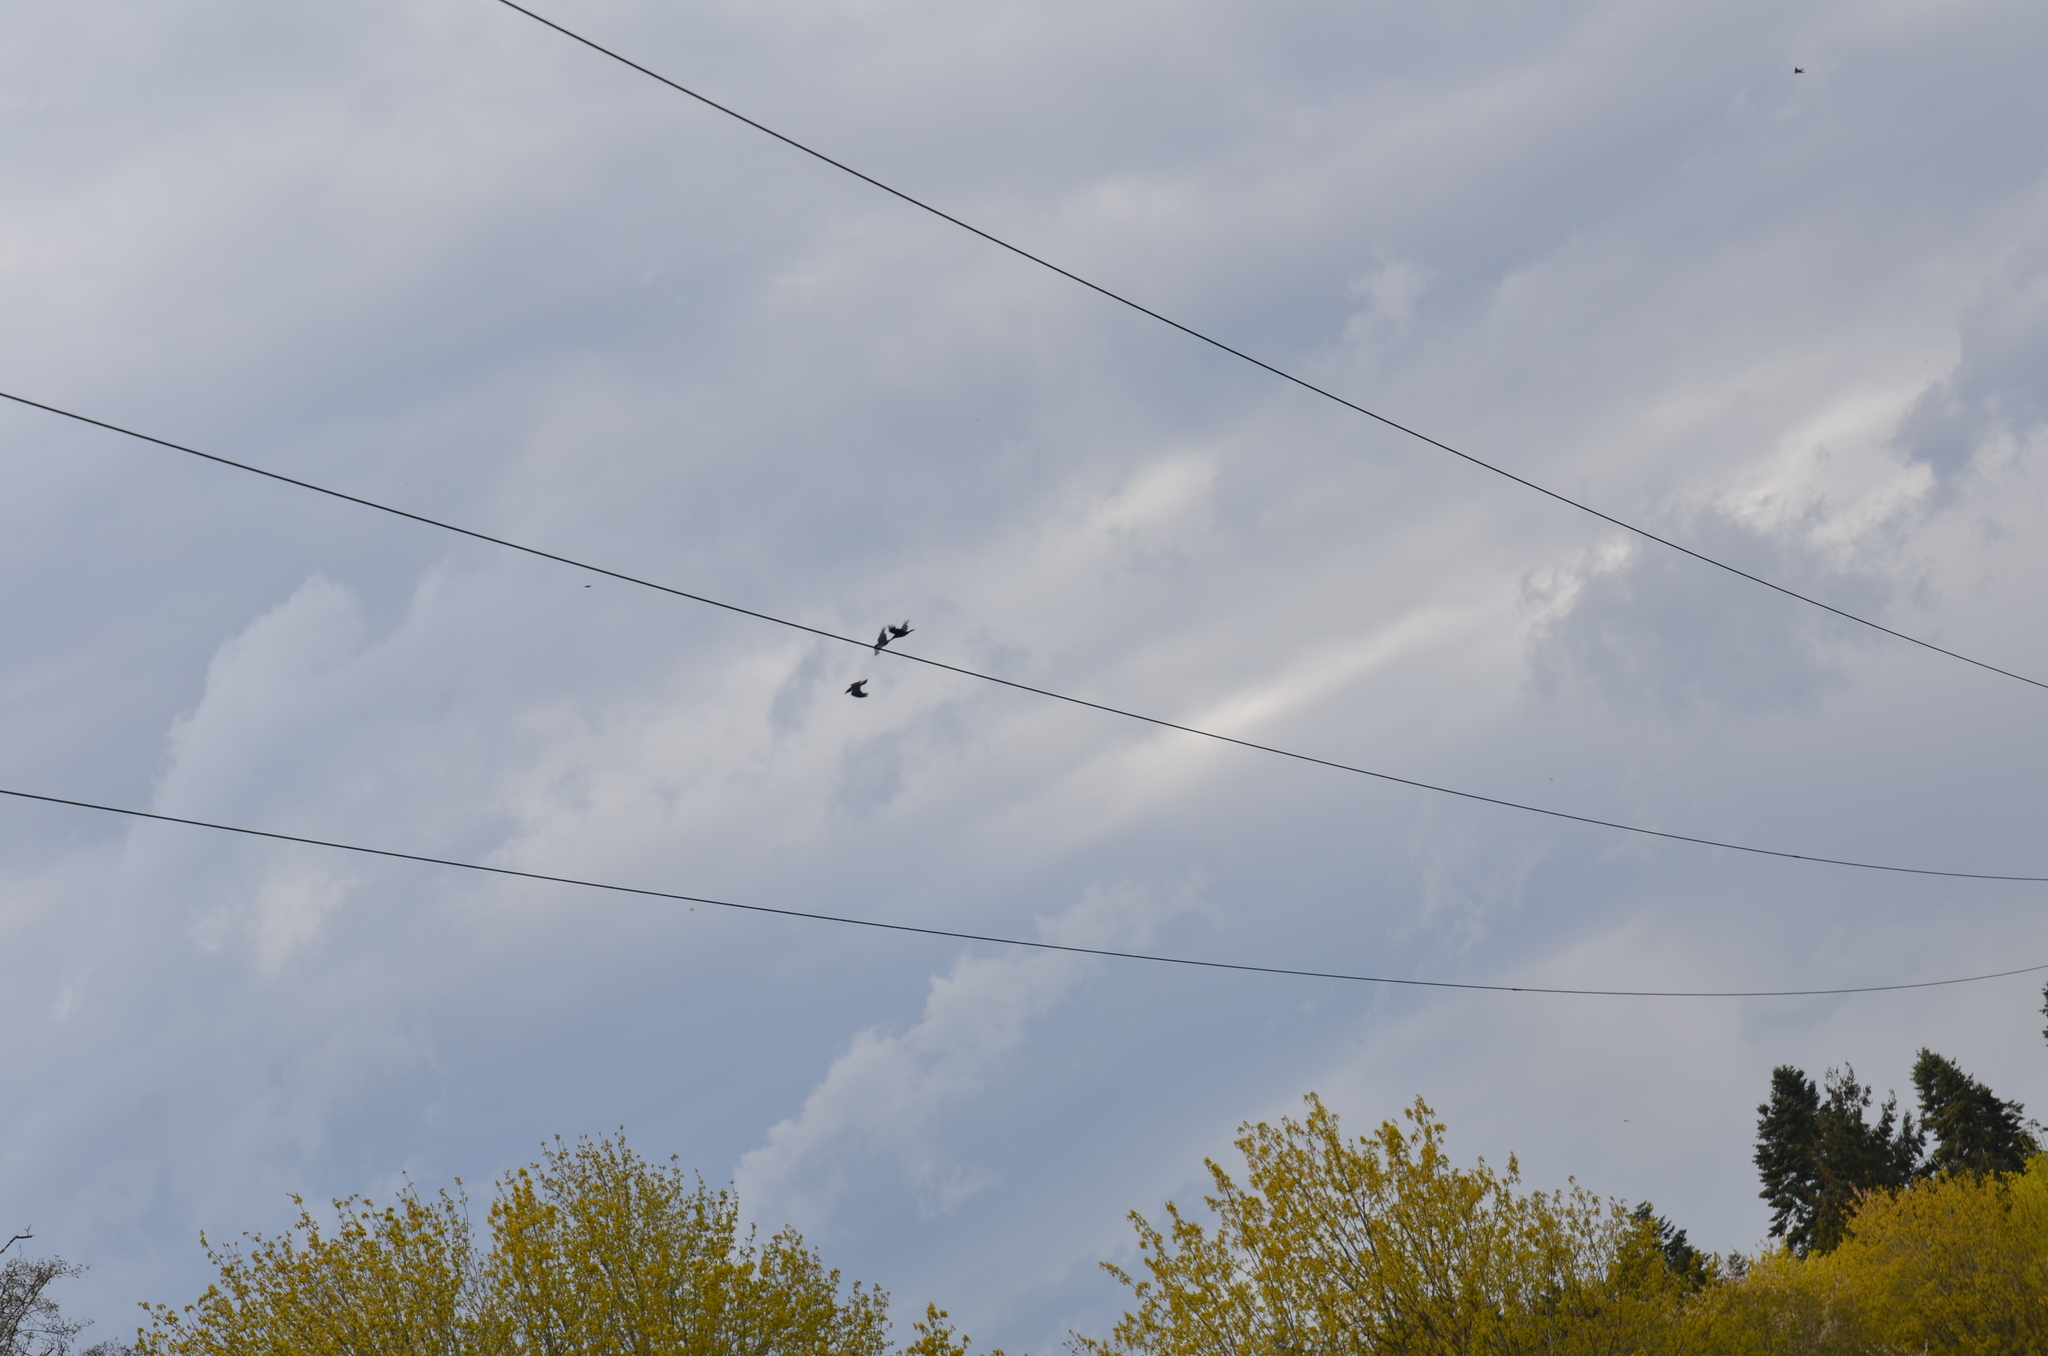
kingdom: Animalia
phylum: Chordata
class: Aves
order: Passeriformes
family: Corvidae
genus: Corvus
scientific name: Corvus corax
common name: Common raven
